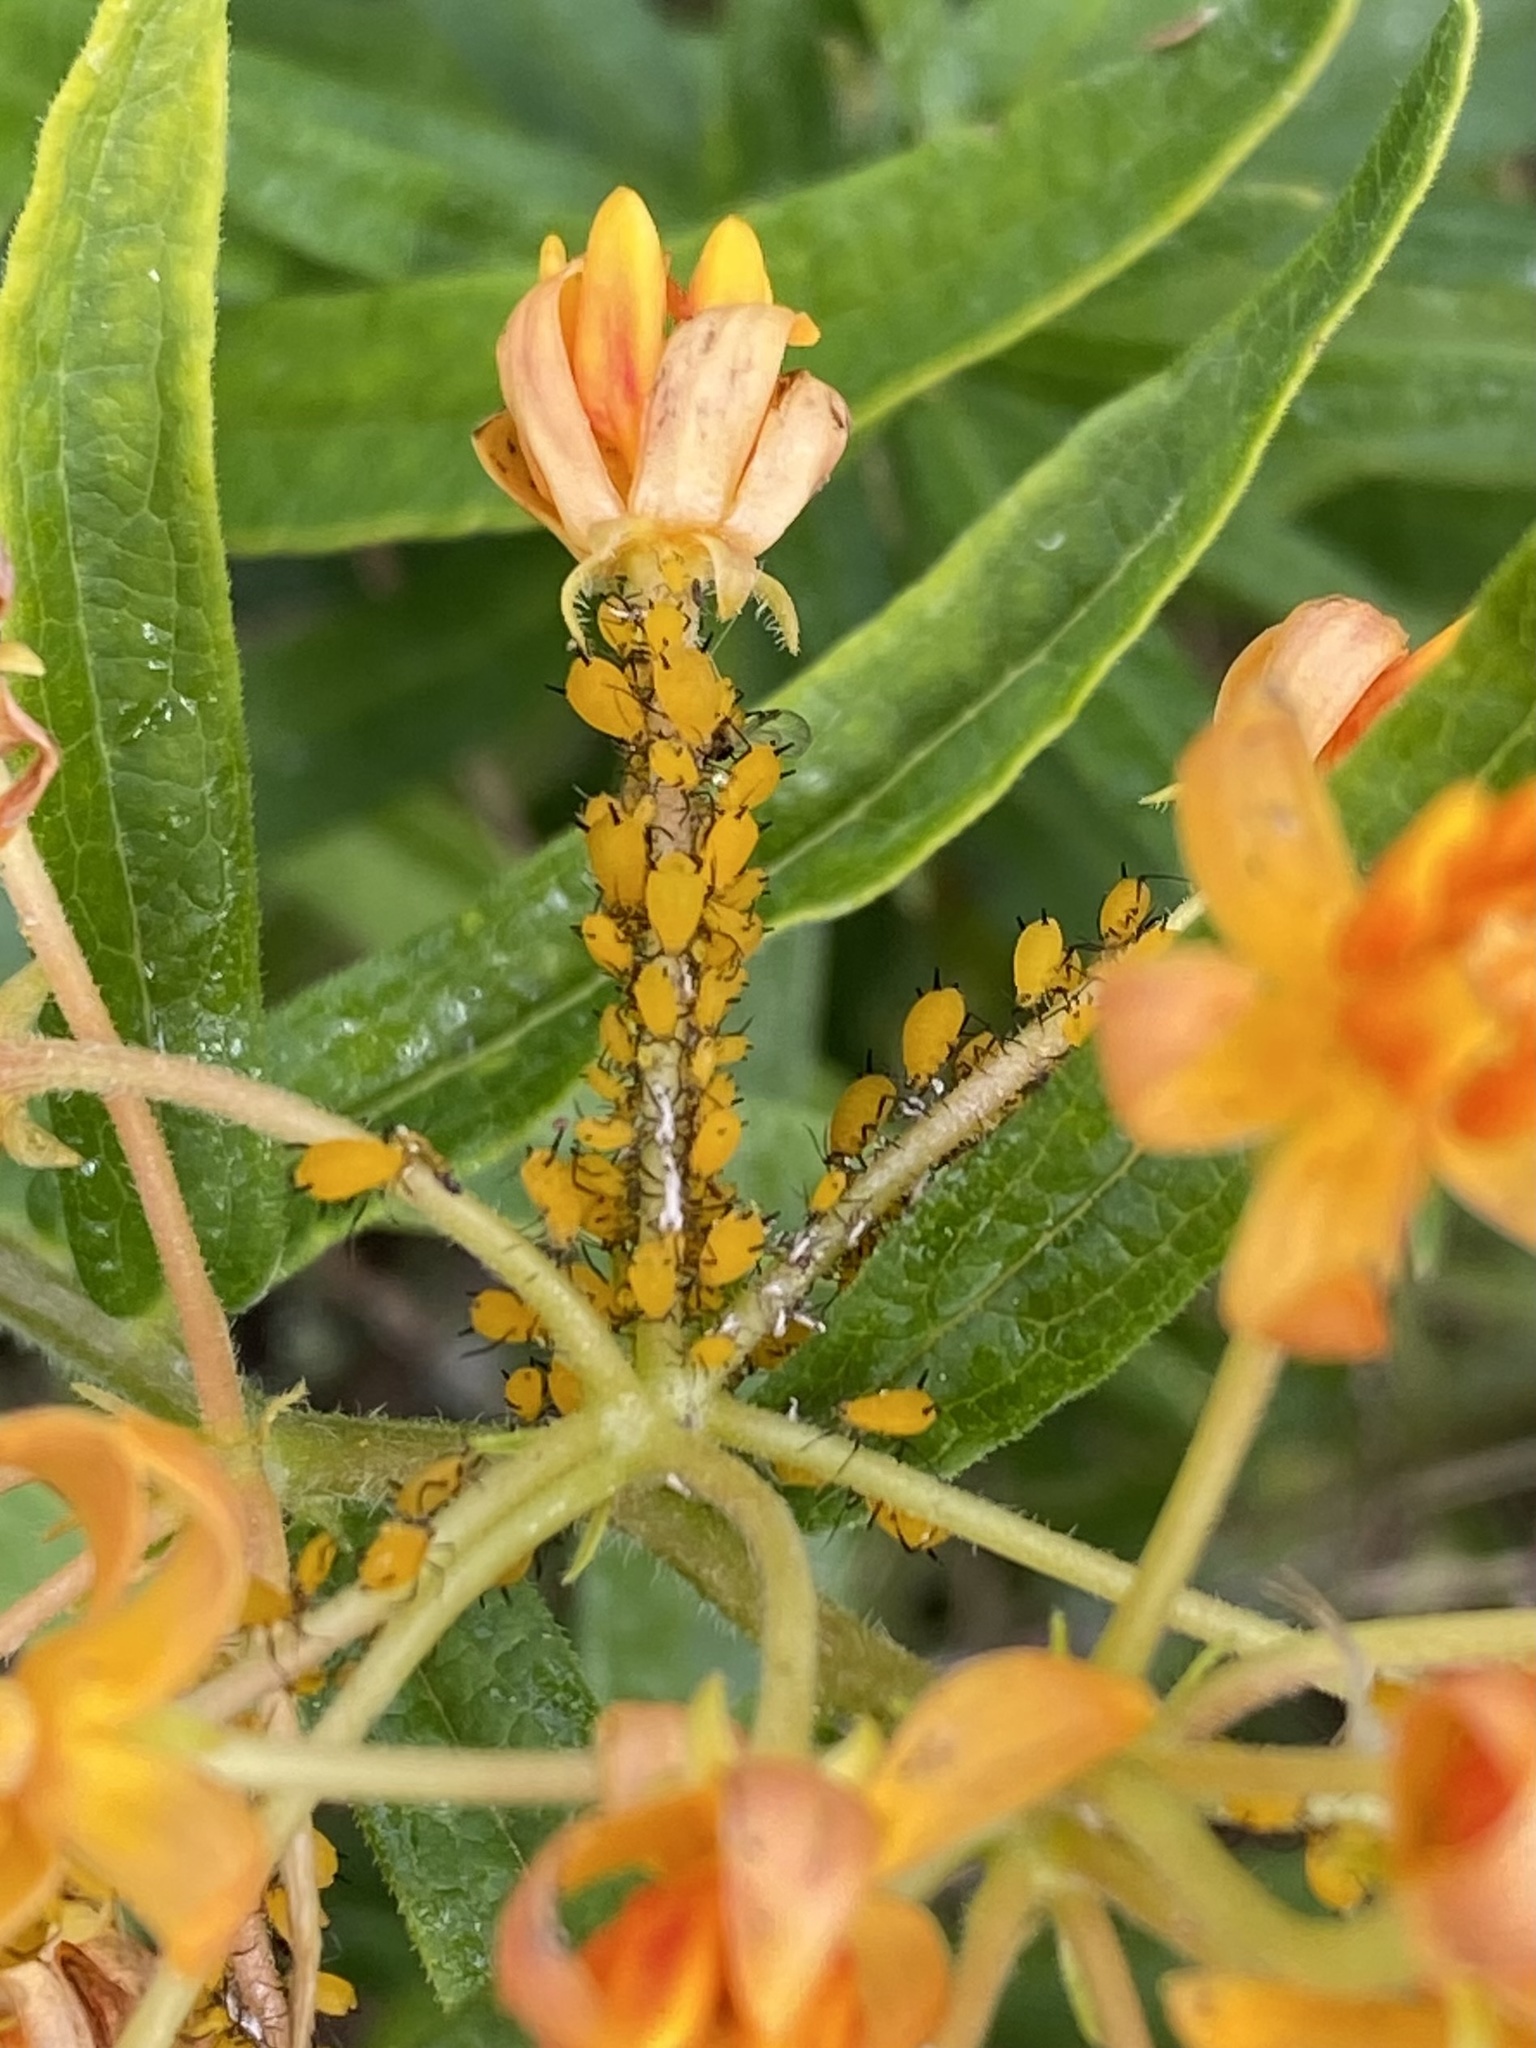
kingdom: Animalia
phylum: Arthropoda
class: Insecta
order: Hemiptera
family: Aphididae
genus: Aphis
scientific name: Aphis nerii
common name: Oleander aphid
